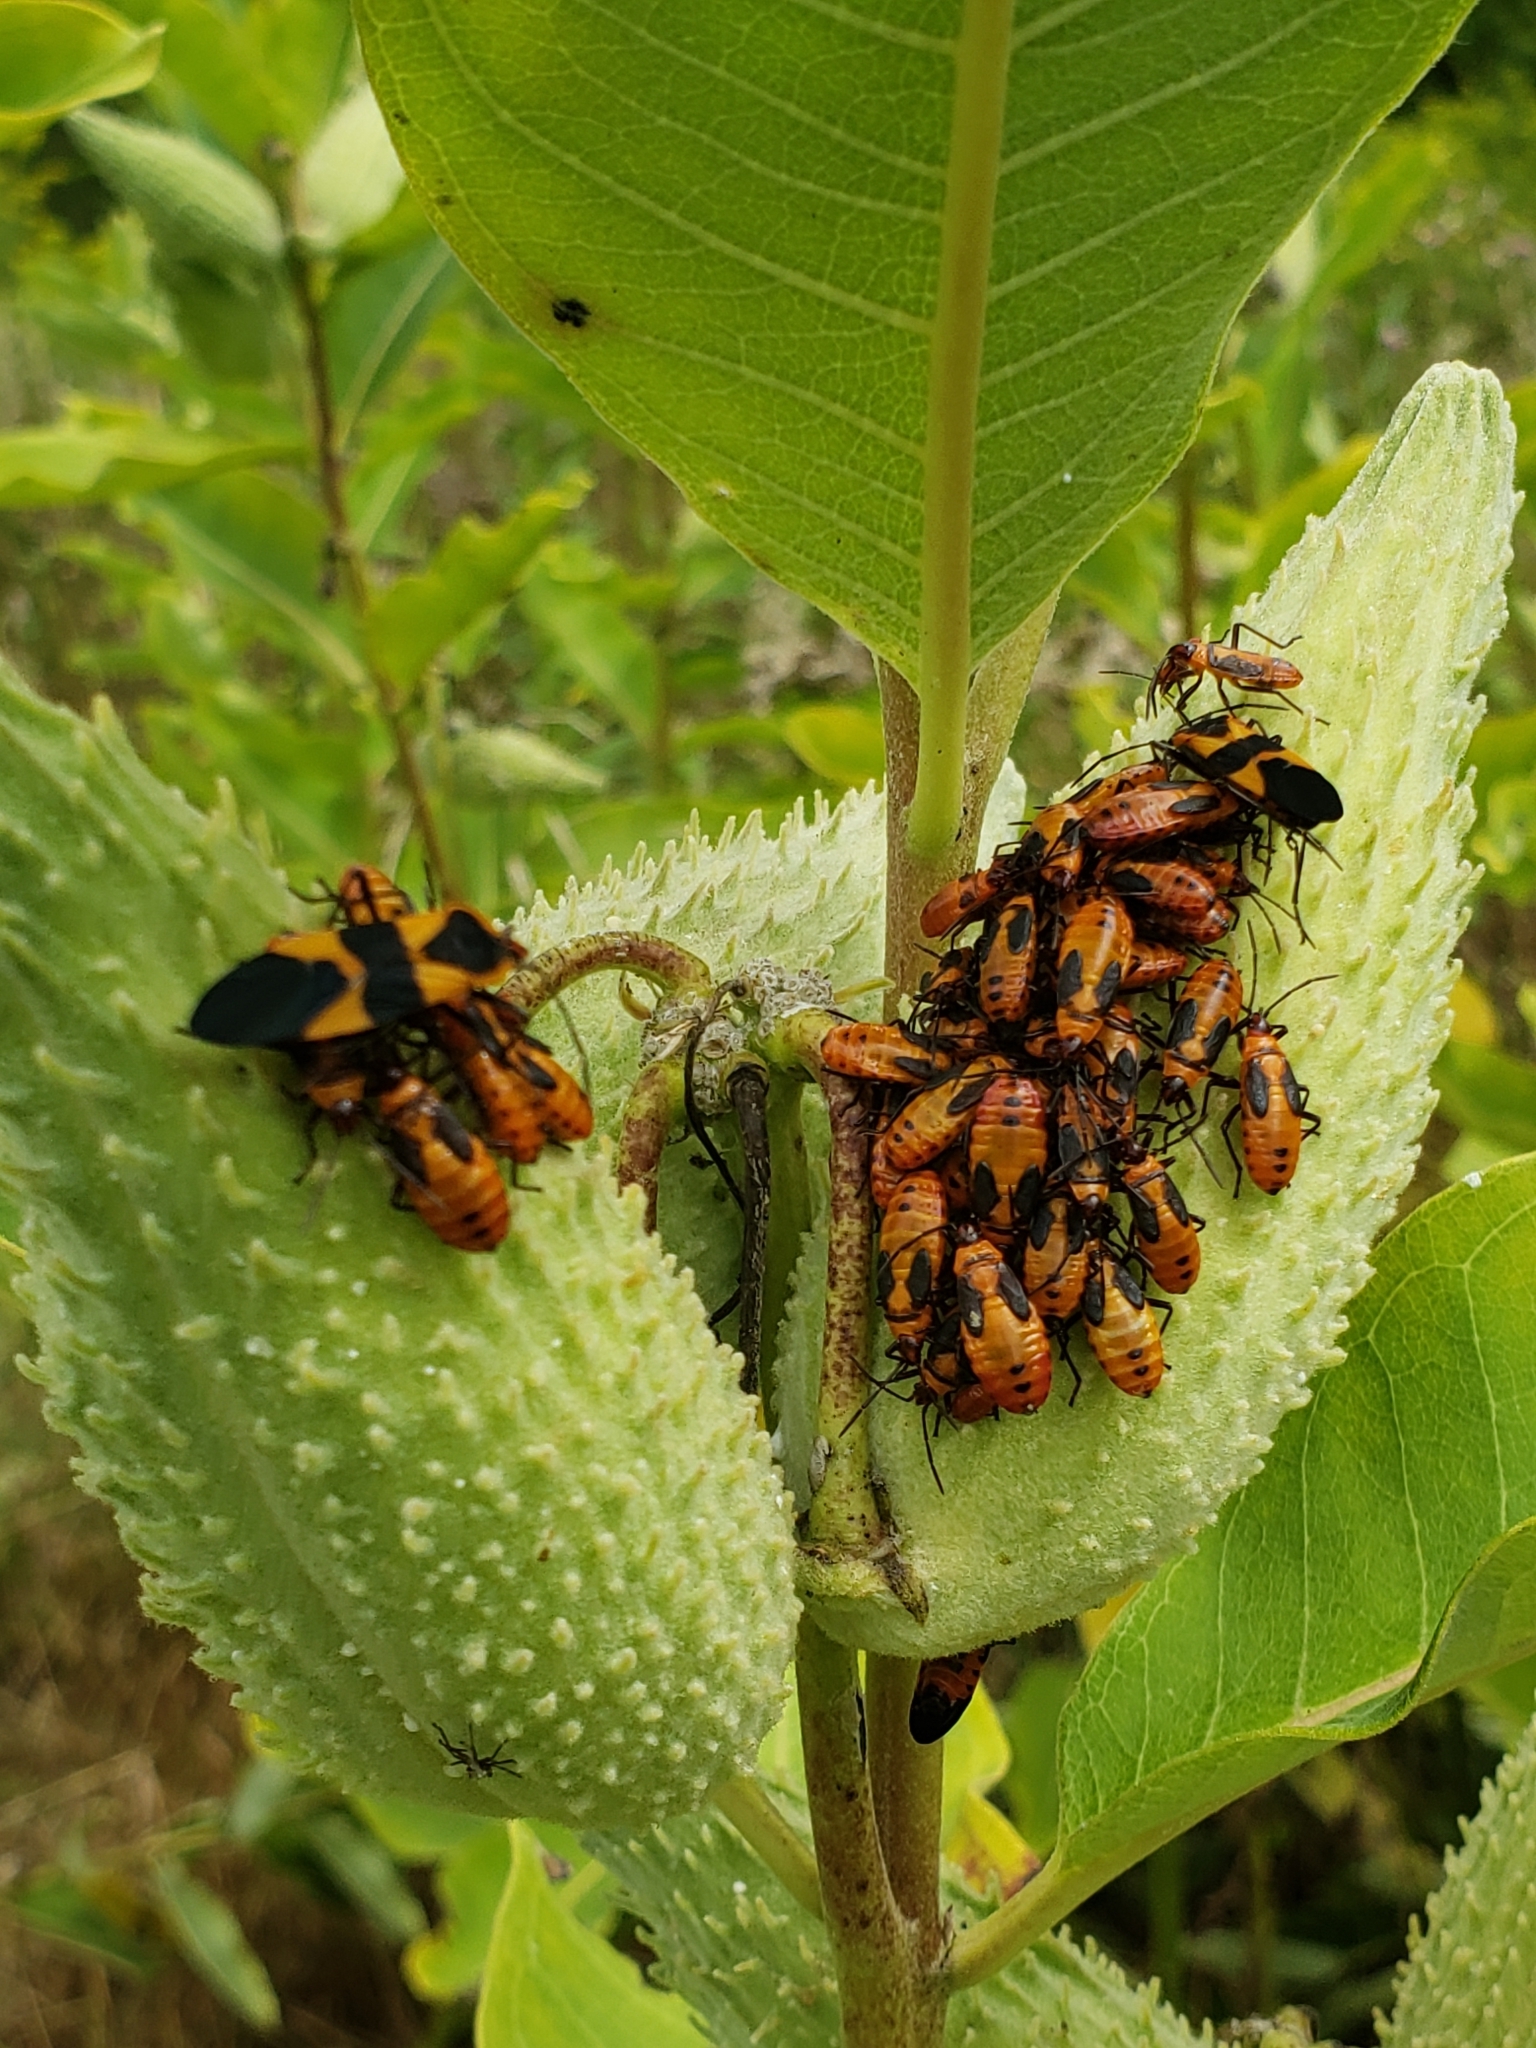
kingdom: Animalia
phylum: Arthropoda
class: Insecta
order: Hemiptera
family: Lygaeidae
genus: Oncopeltus
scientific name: Oncopeltus fasciatus
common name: Large milkweed bug
